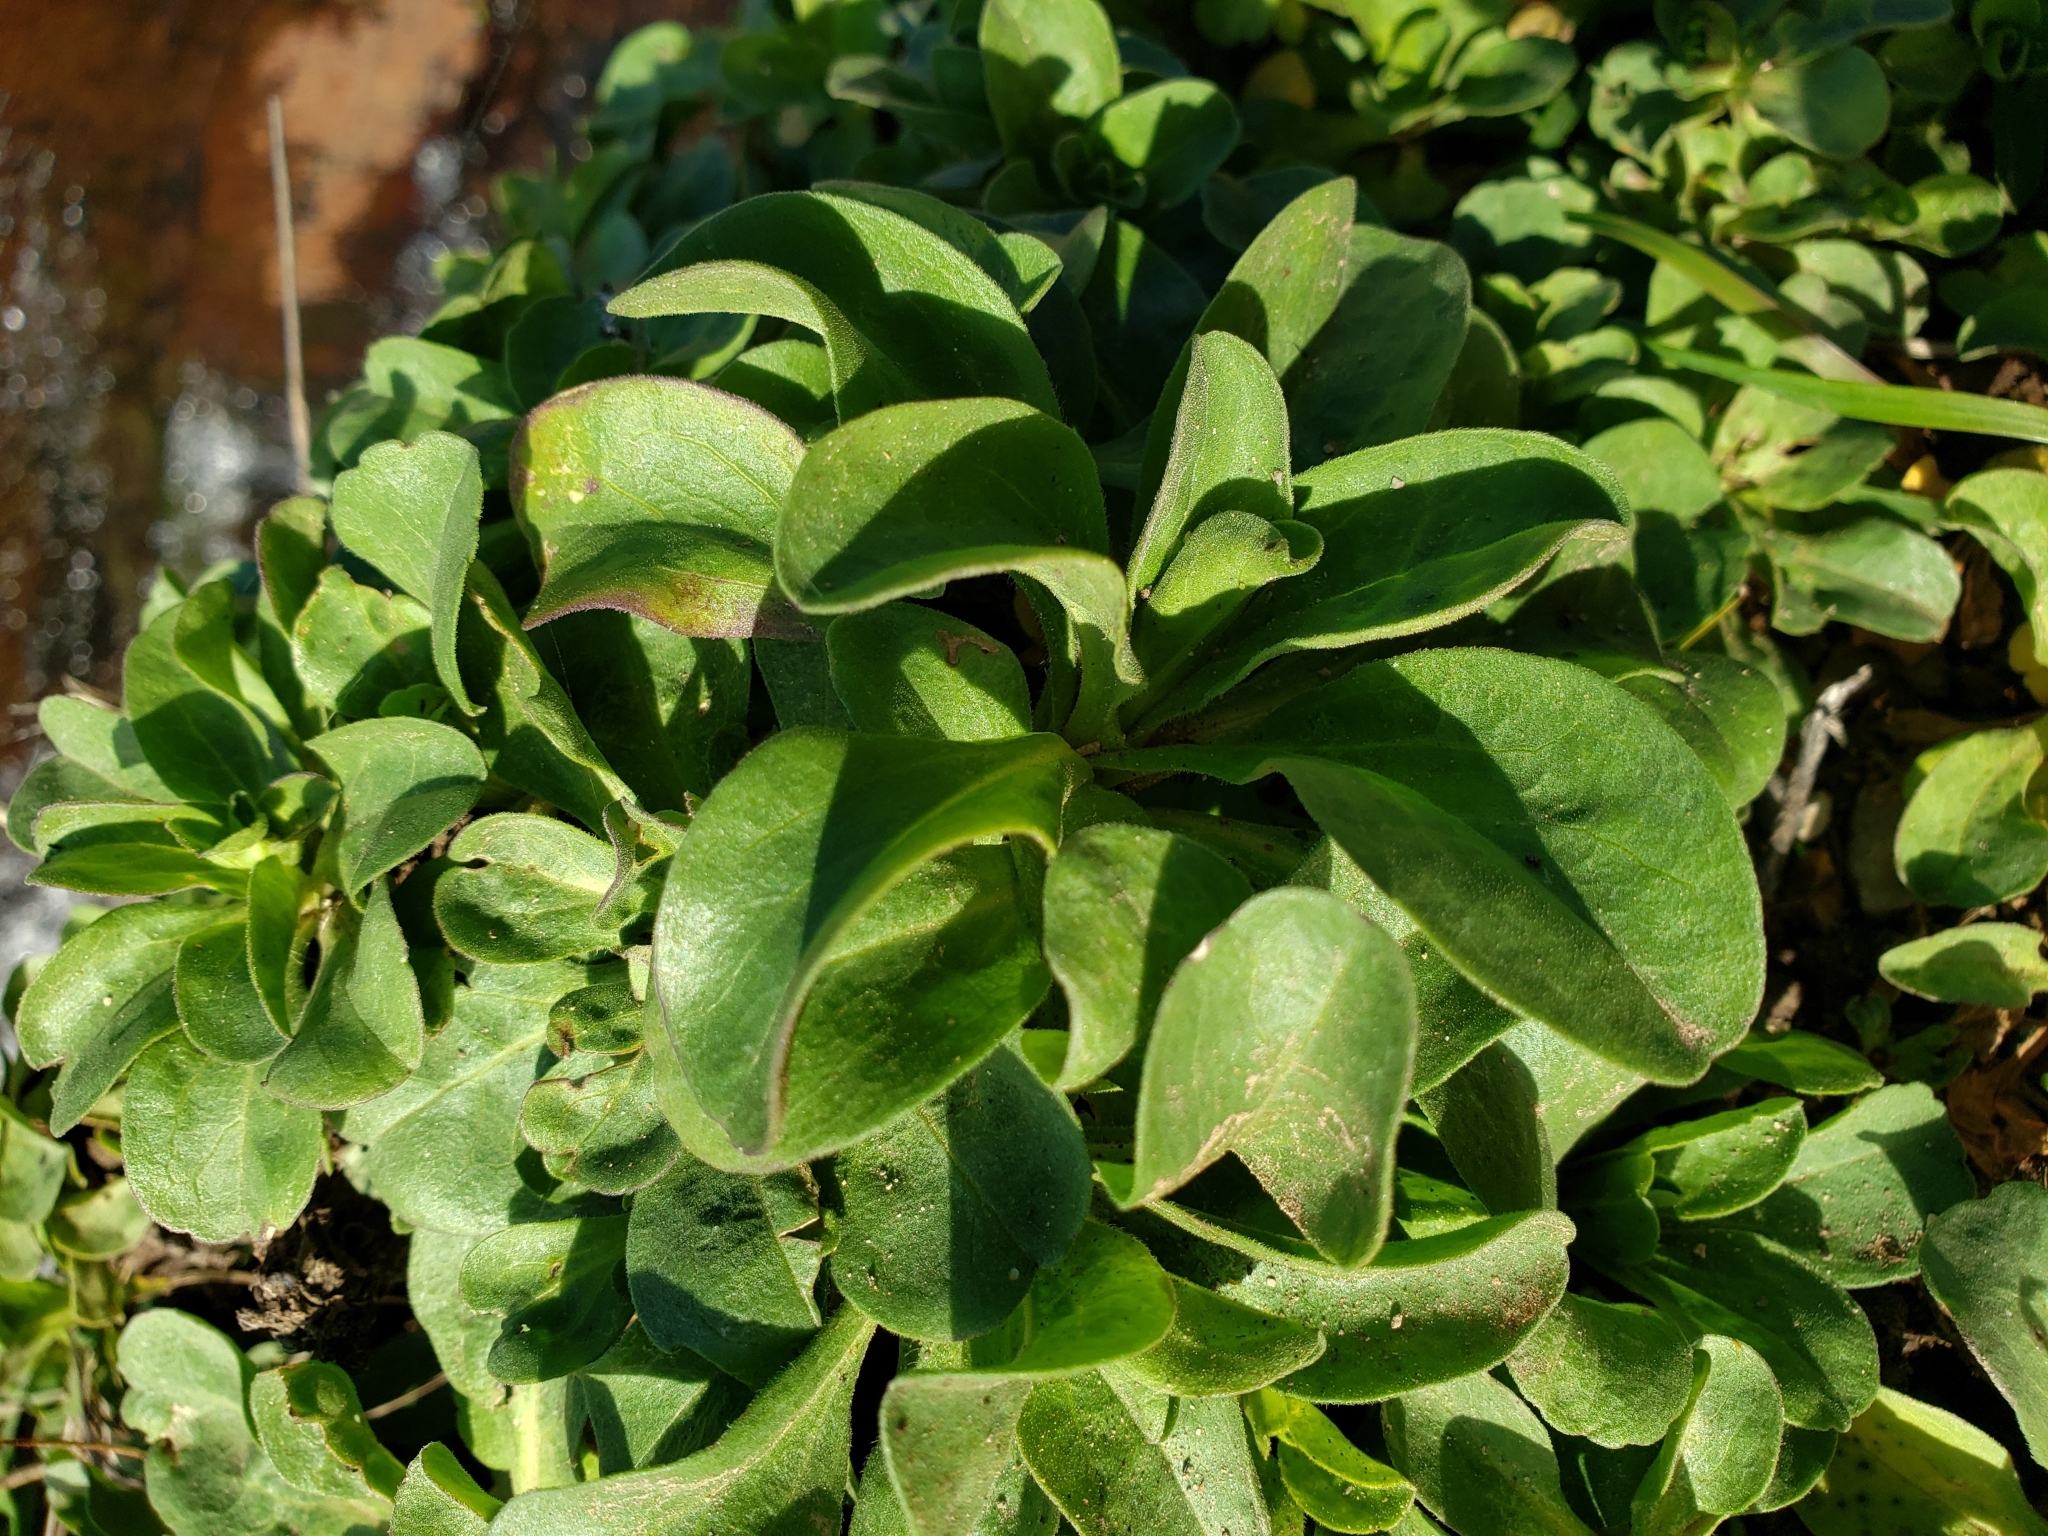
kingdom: Plantae
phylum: Tracheophyta
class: Magnoliopsida
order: Asterales
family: Asteraceae
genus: Erigeron
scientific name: Erigeron glaucus
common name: Seaside daisy
